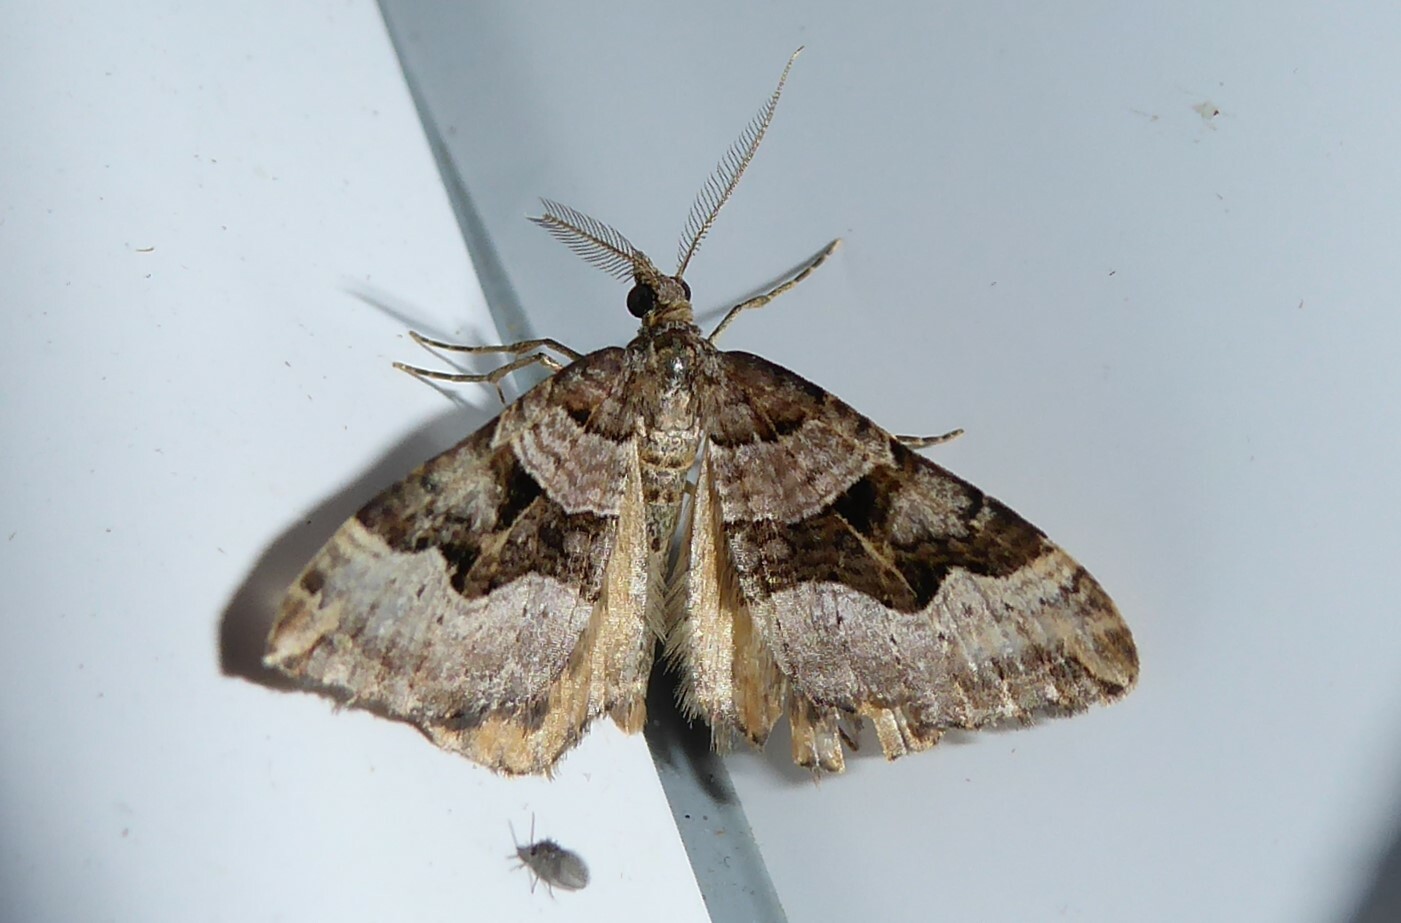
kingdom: Animalia
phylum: Arthropoda
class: Insecta
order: Lepidoptera
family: Geometridae
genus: Xanthorhoe
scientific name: Xanthorhoe semifissata
